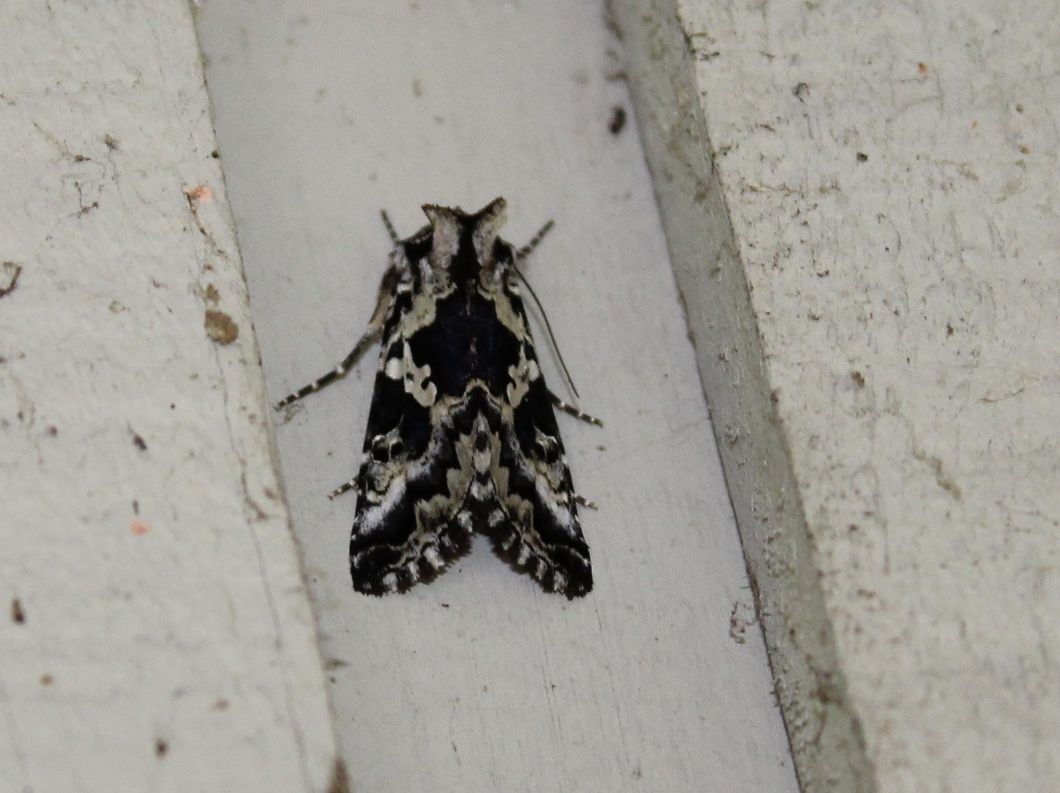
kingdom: Animalia
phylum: Arthropoda
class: Insecta
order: Lepidoptera
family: Noctuidae
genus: Syngrapha
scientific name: Syngrapha rectangula
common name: Angulated cutworm
